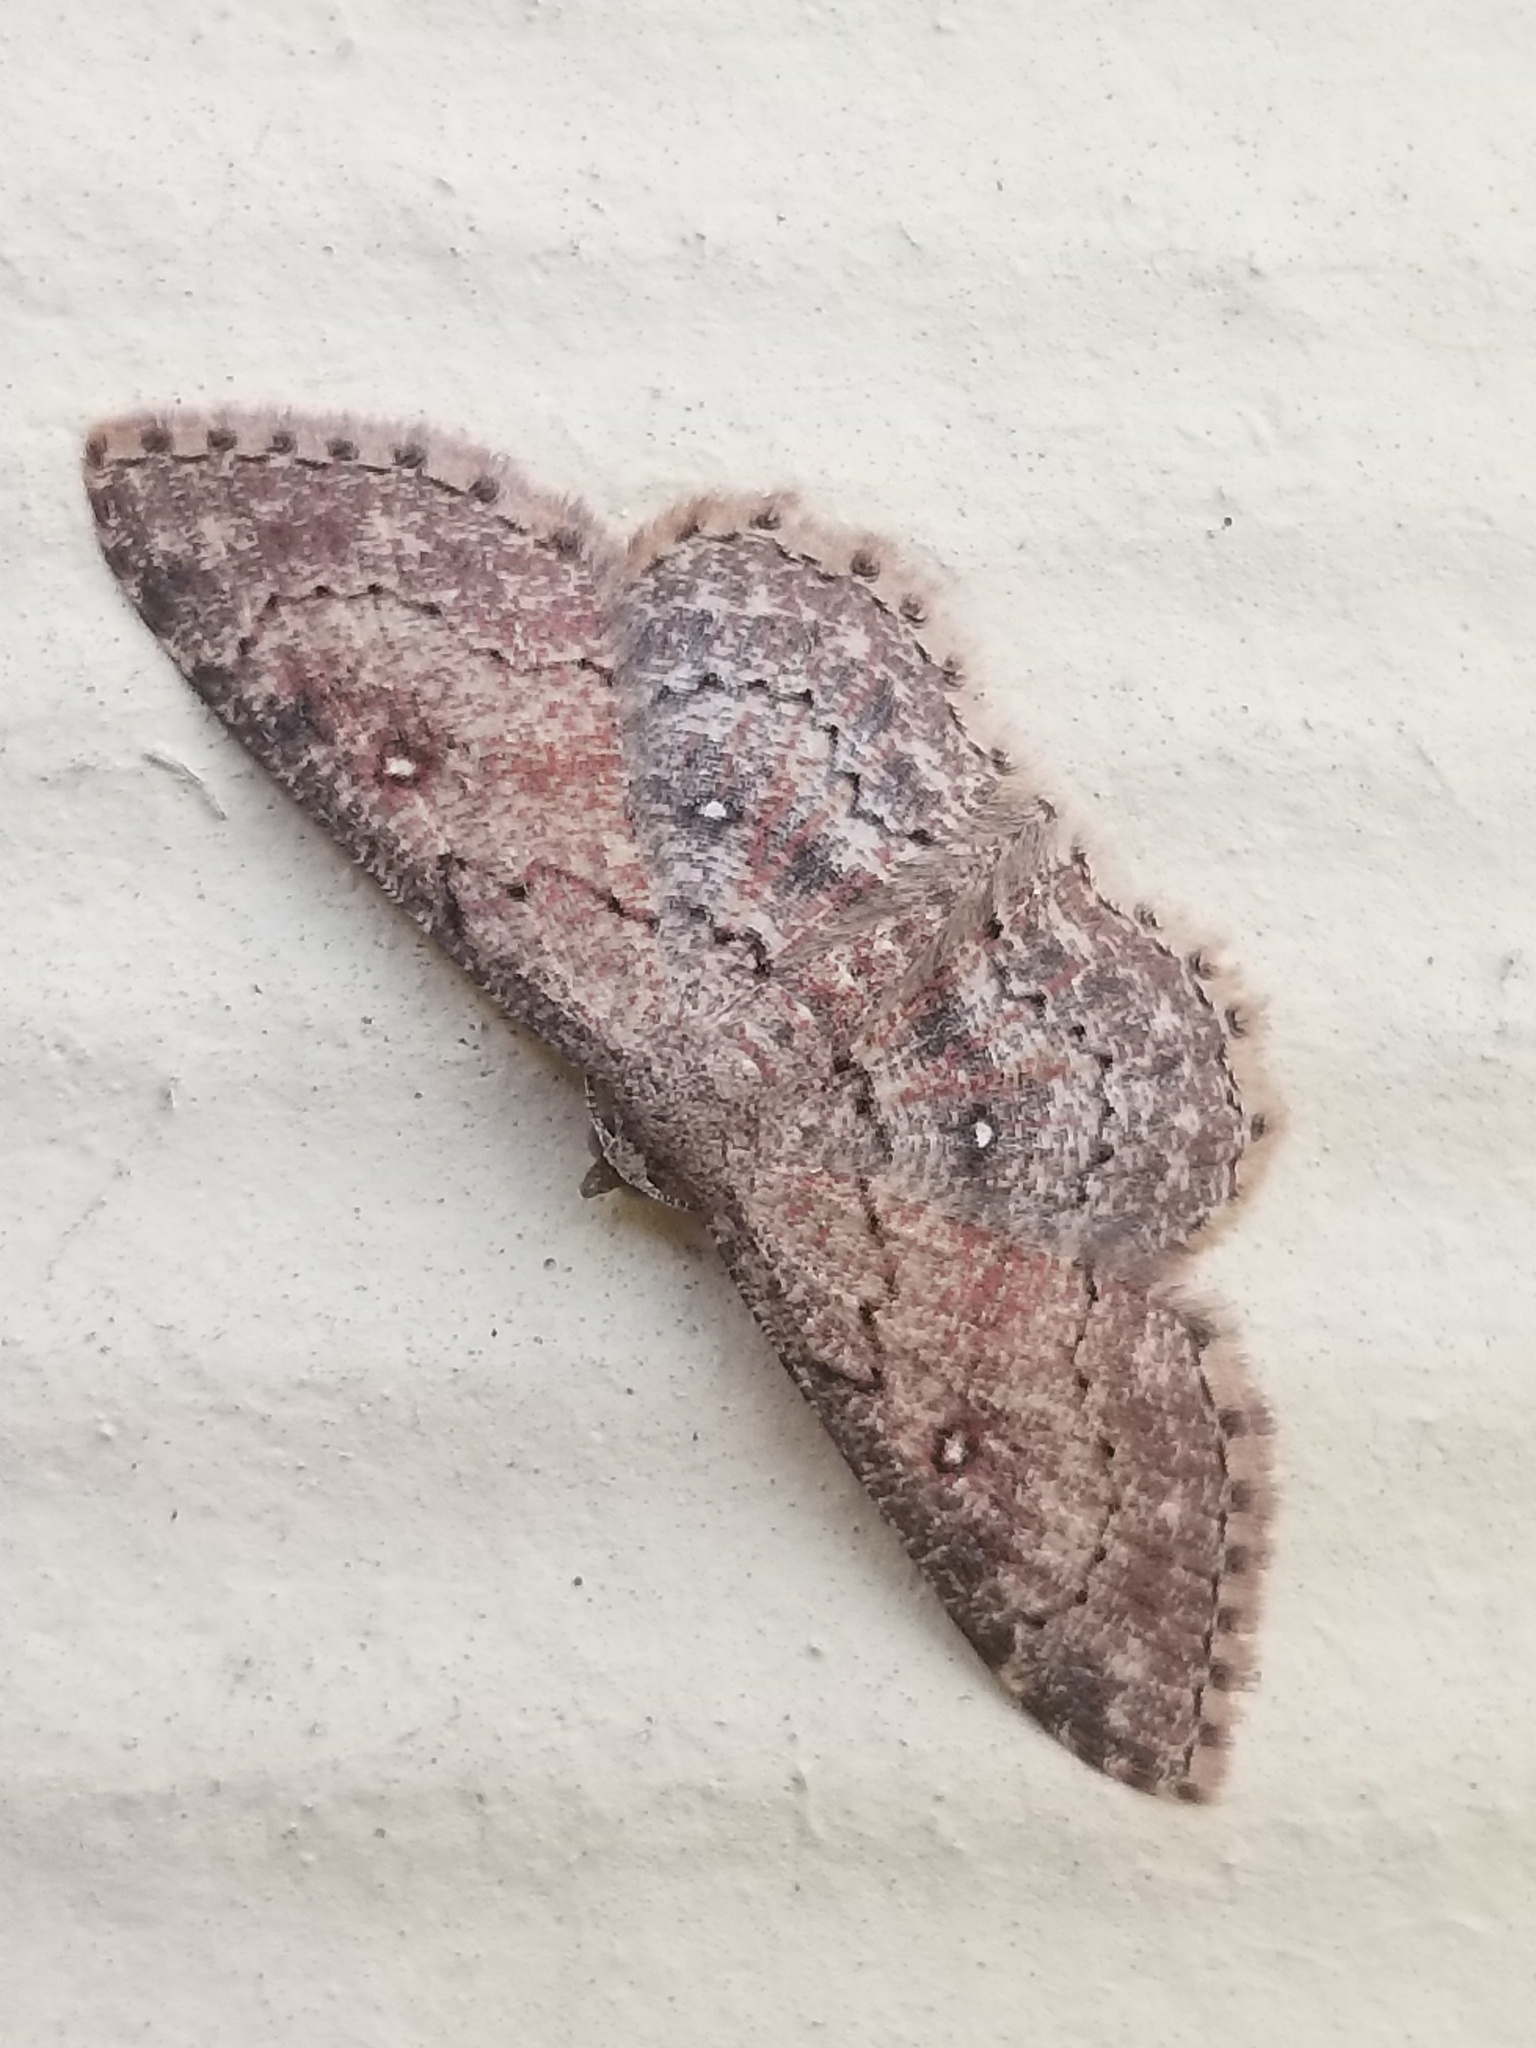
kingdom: Animalia
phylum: Arthropoda
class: Insecta
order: Lepidoptera
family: Geometridae
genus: Cyclophora
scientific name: Cyclophora nanaria
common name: Cankerworm
